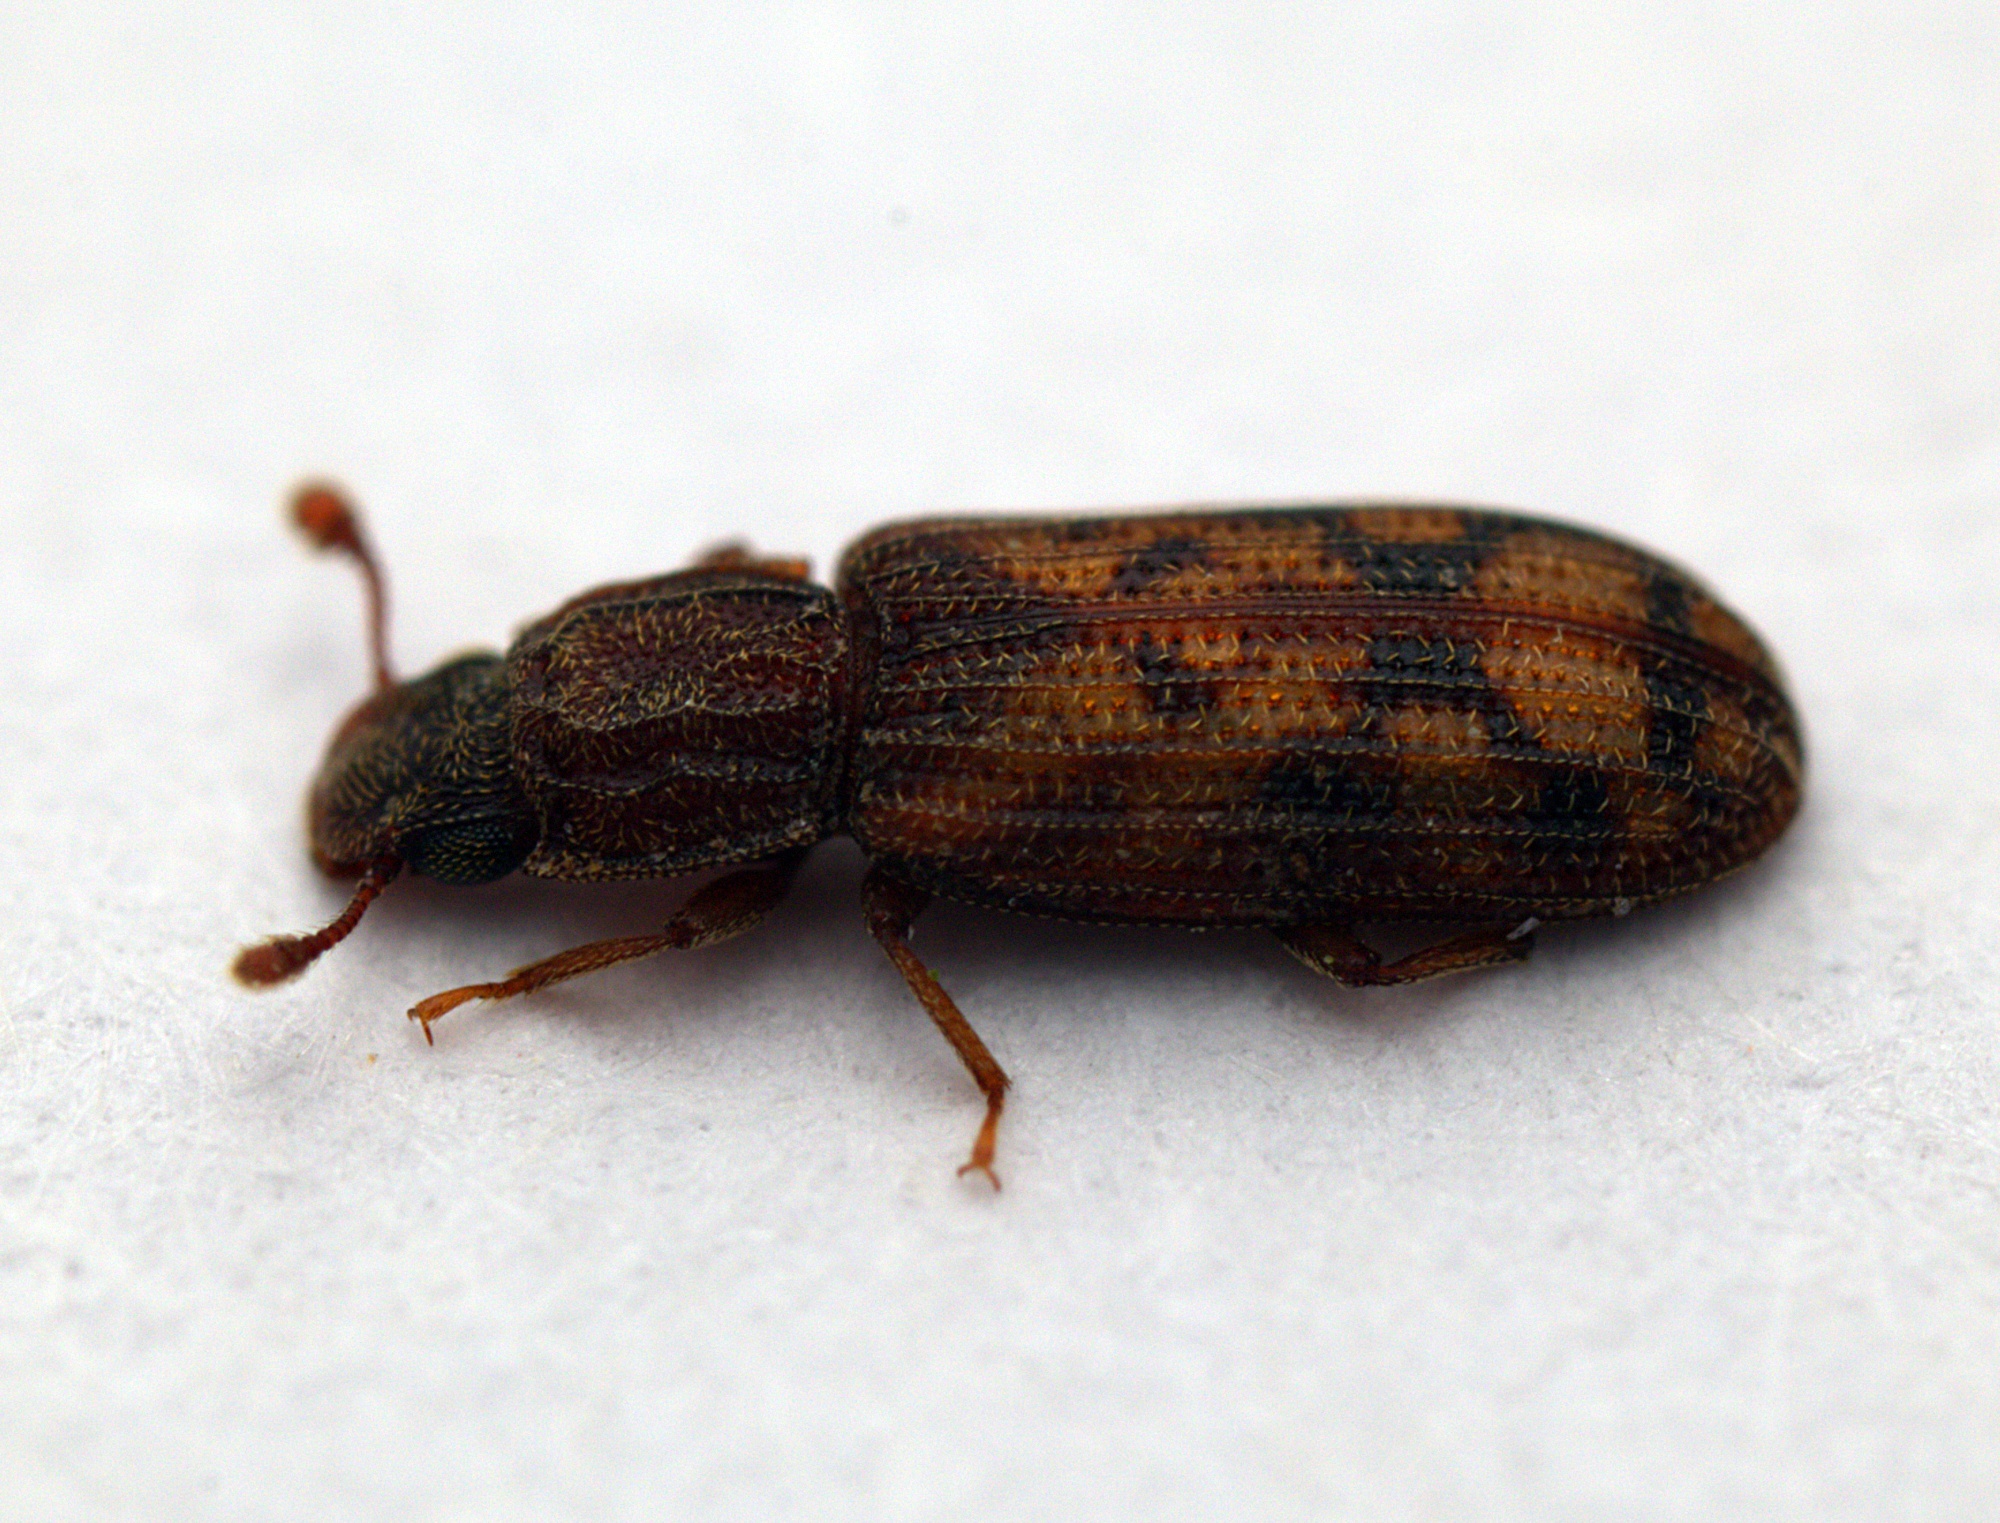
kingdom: Animalia
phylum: Arthropoda
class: Insecta
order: Coleoptera
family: Zopheridae
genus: Bitoma
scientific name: Bitoma insularis
